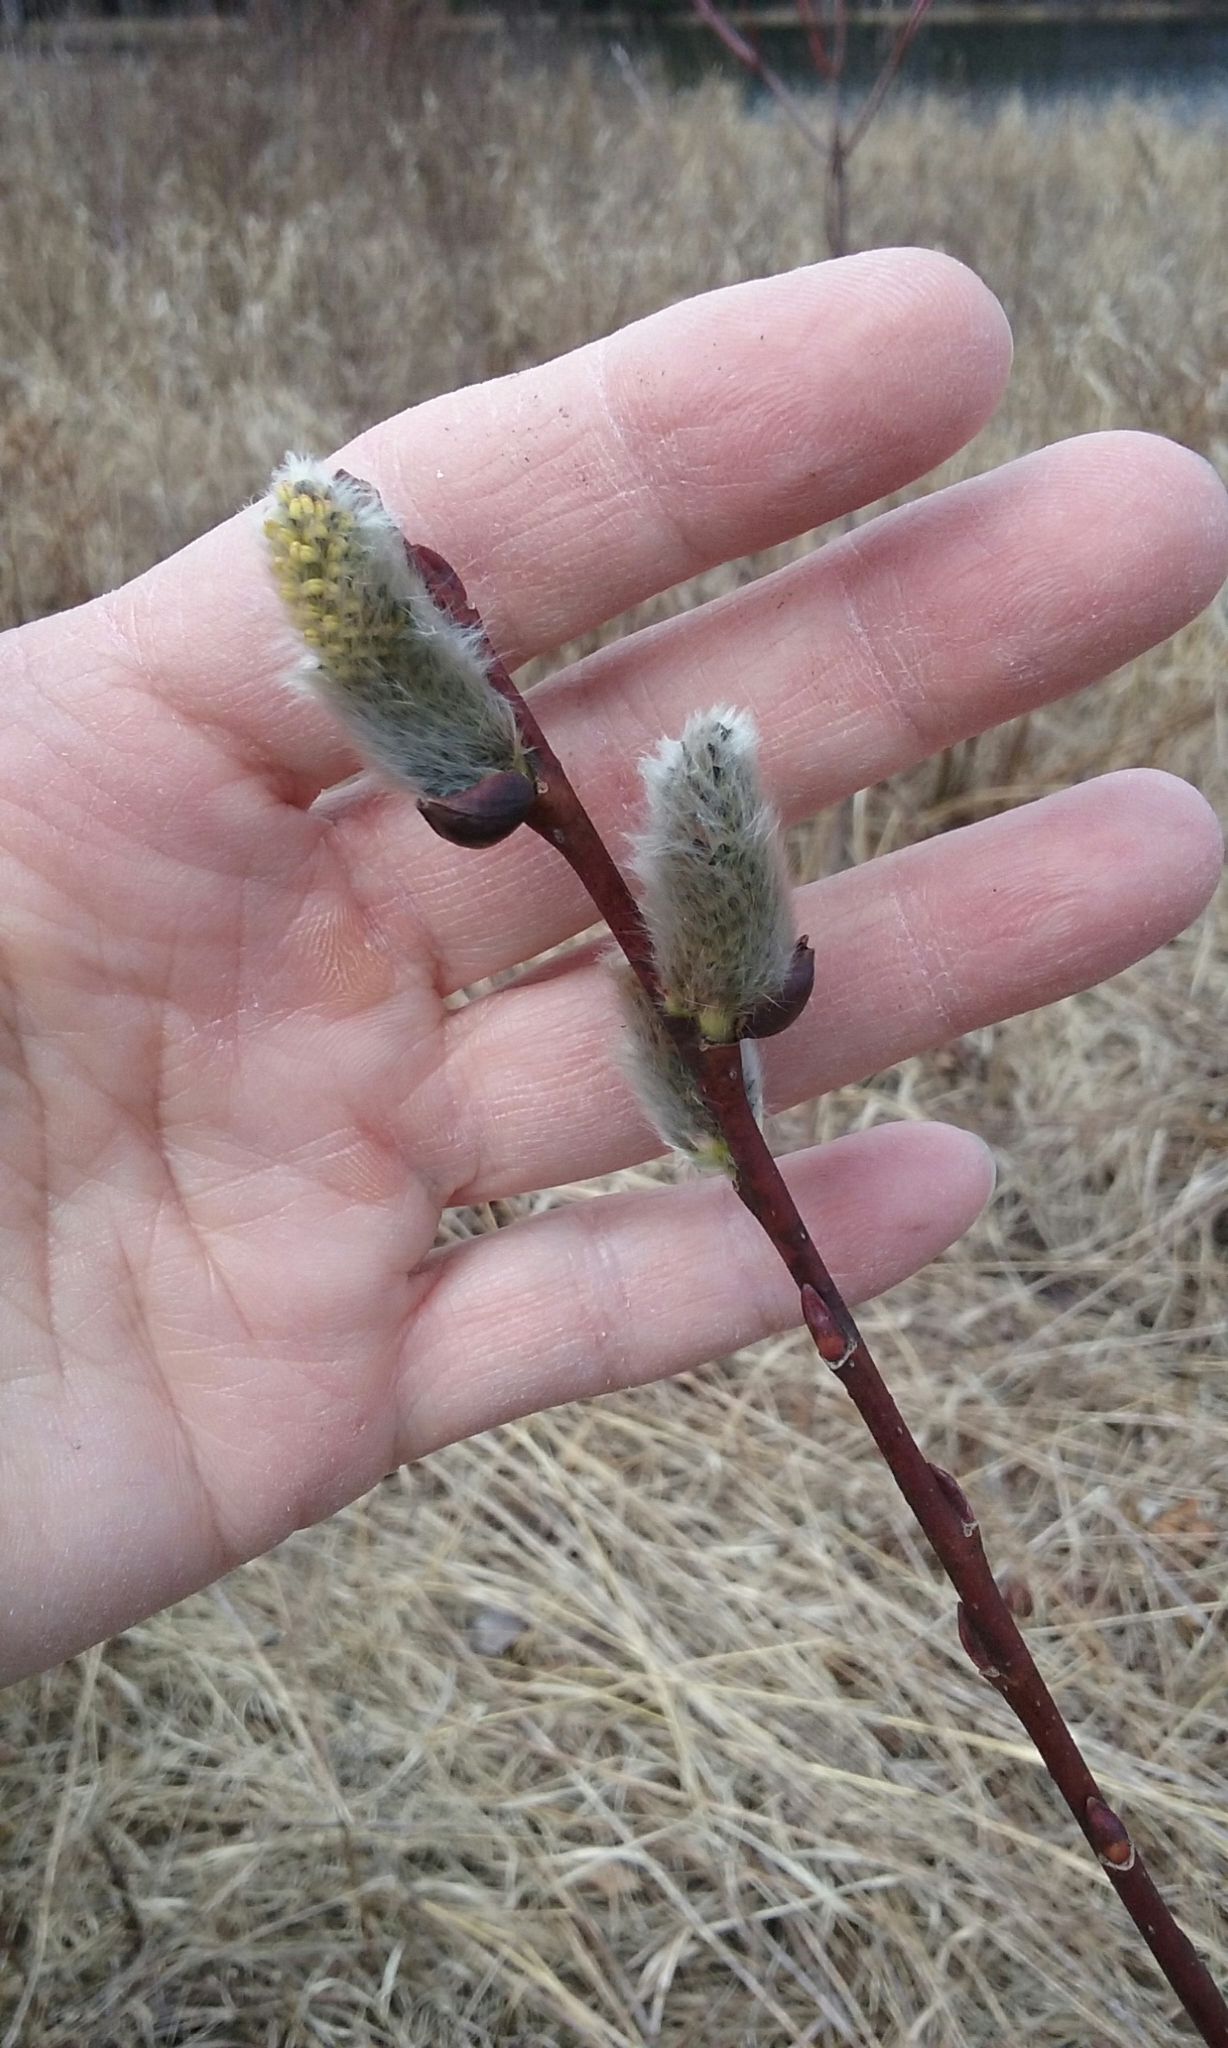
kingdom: Plantae
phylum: Tracheophyta
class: Magnoliopsida
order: Malpighiales
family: Salicaceae
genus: Salix
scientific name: Salix discolor
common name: Glaucous willow
